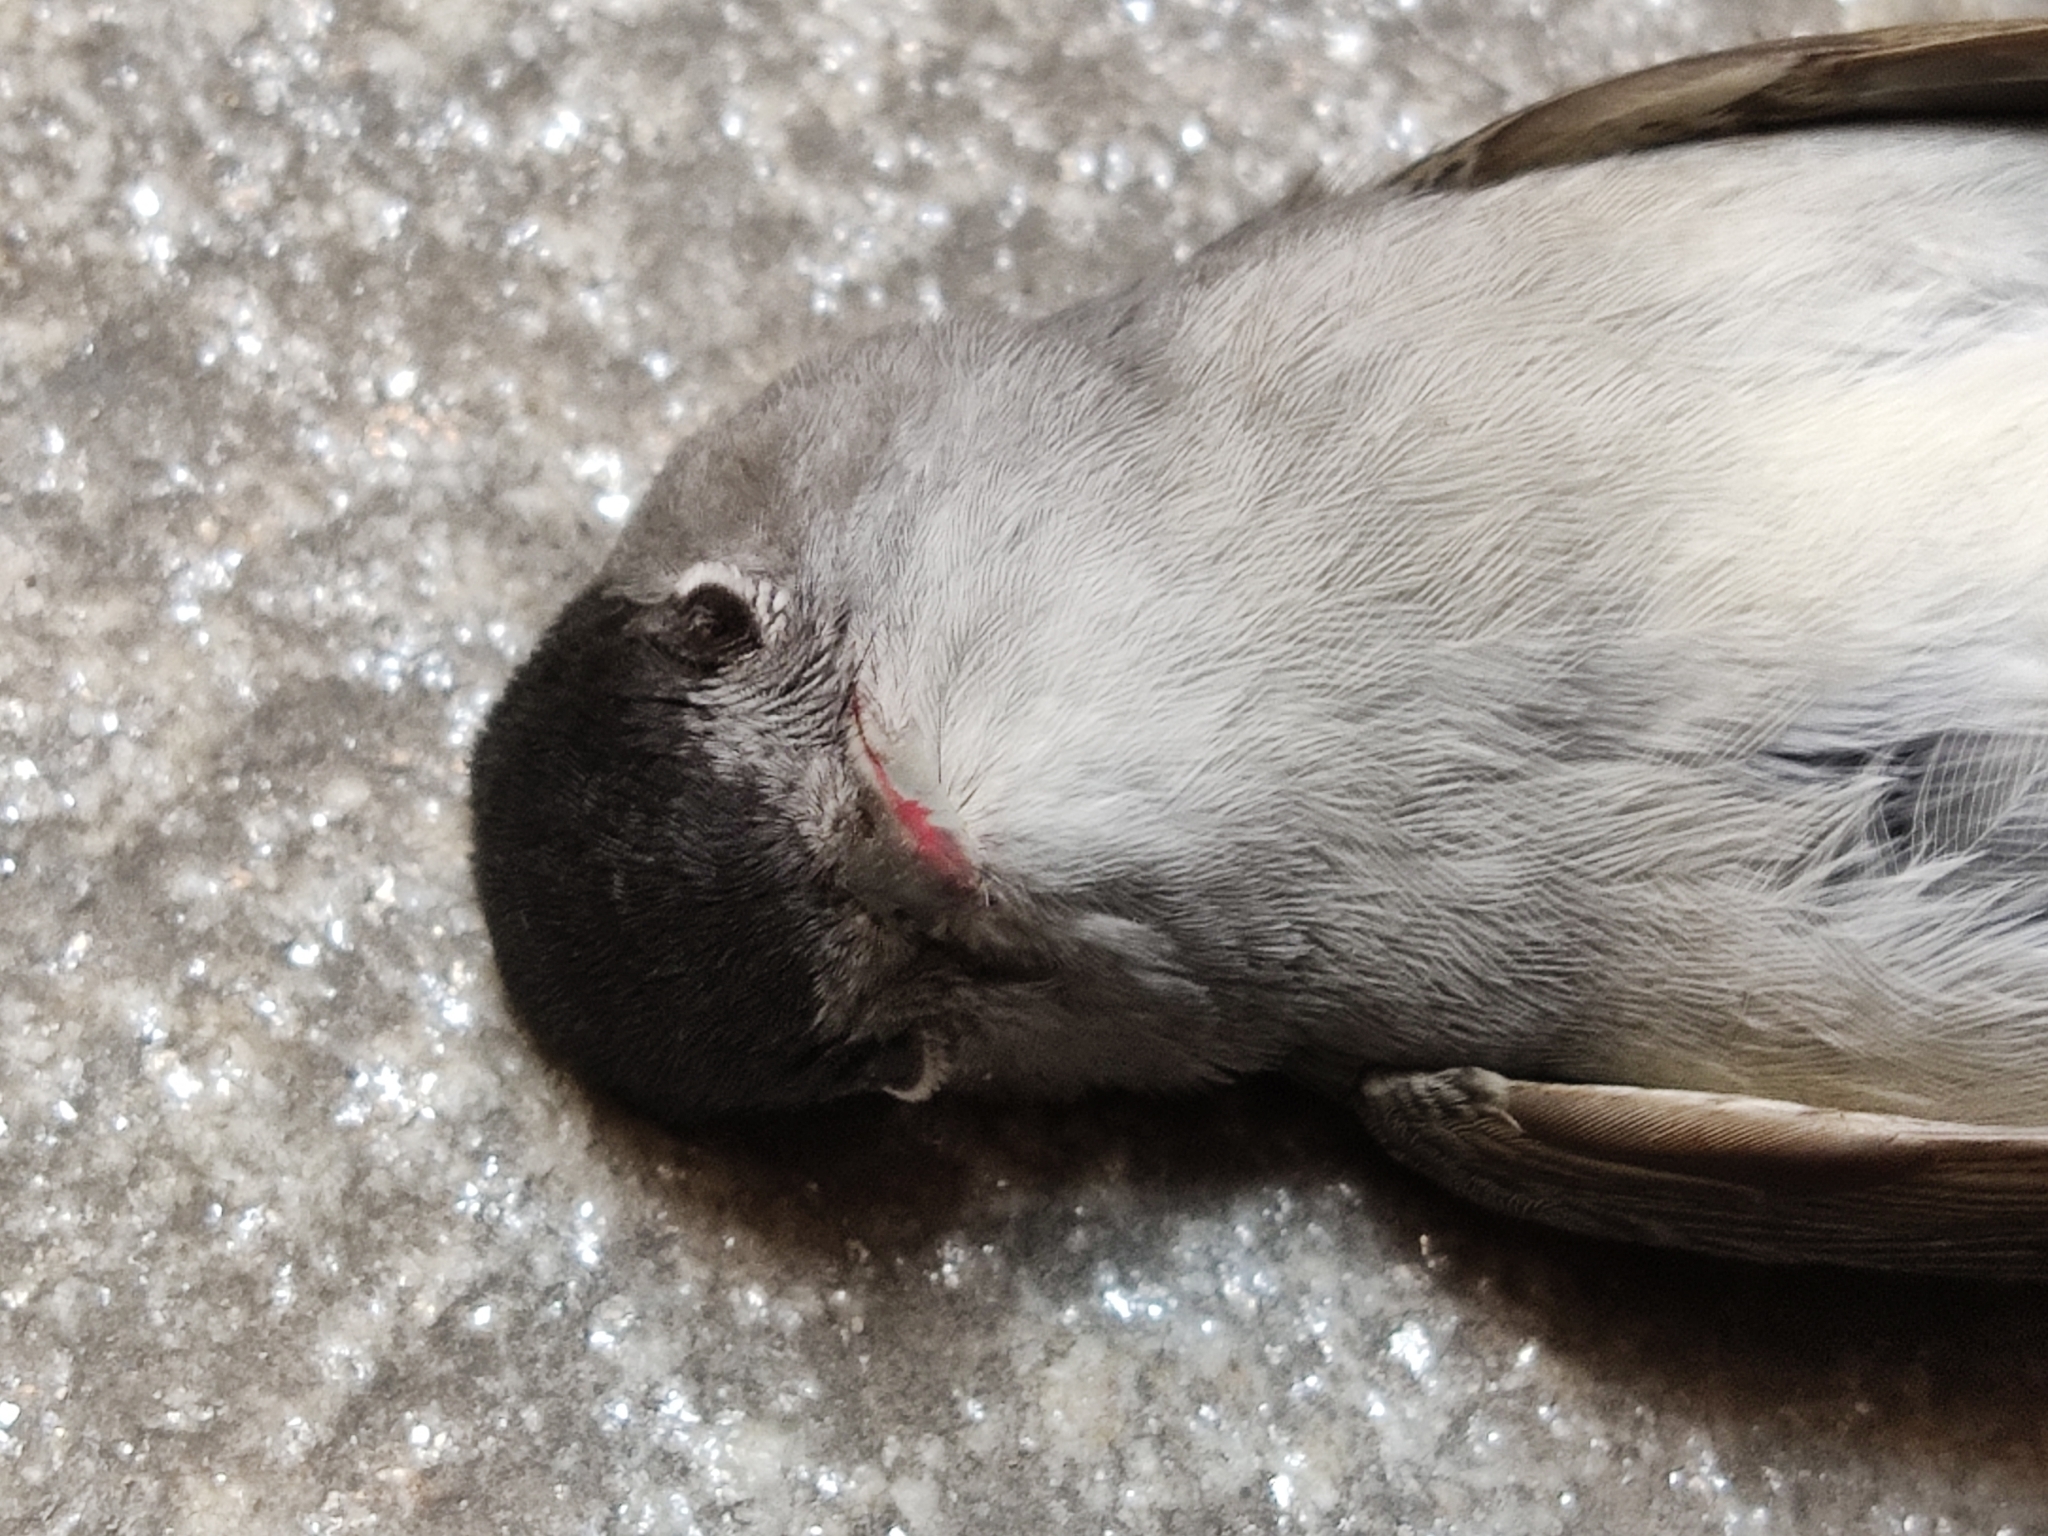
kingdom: Animalia
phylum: Chordata
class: Aves
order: Passeriformes
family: Sylviidae
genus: Sylvia
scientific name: Sylvia atricapilla
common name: Eurasian blackcap
